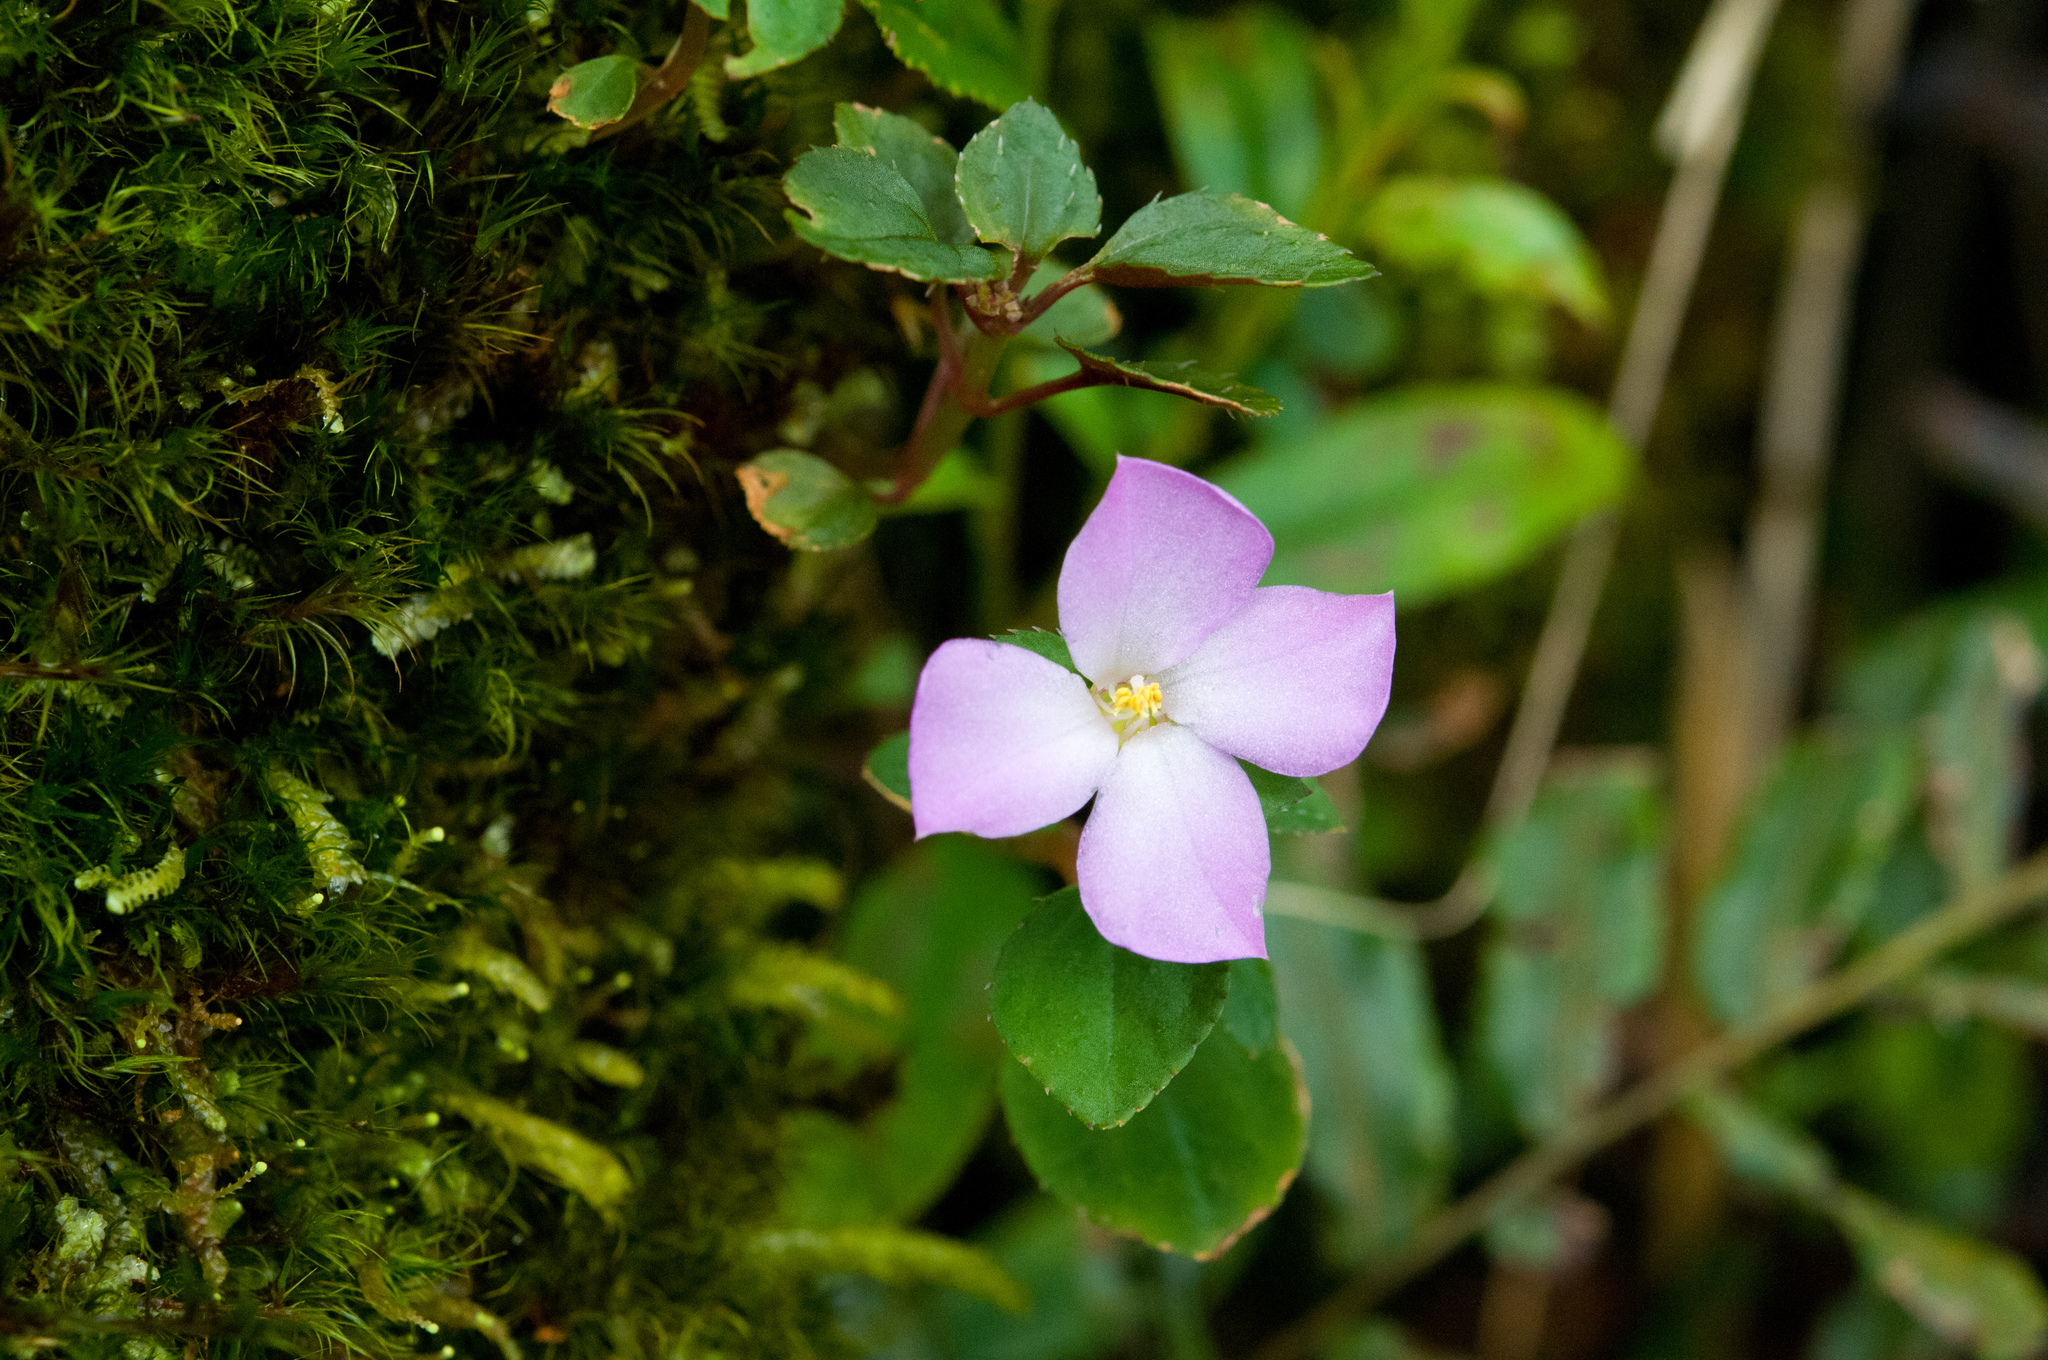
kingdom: Plantae
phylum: Tracheophyta
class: Magnoliopsida
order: Myrtales
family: Melastomataceae
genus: Sarcopyramis
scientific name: Sarcopyramis bodinieri
